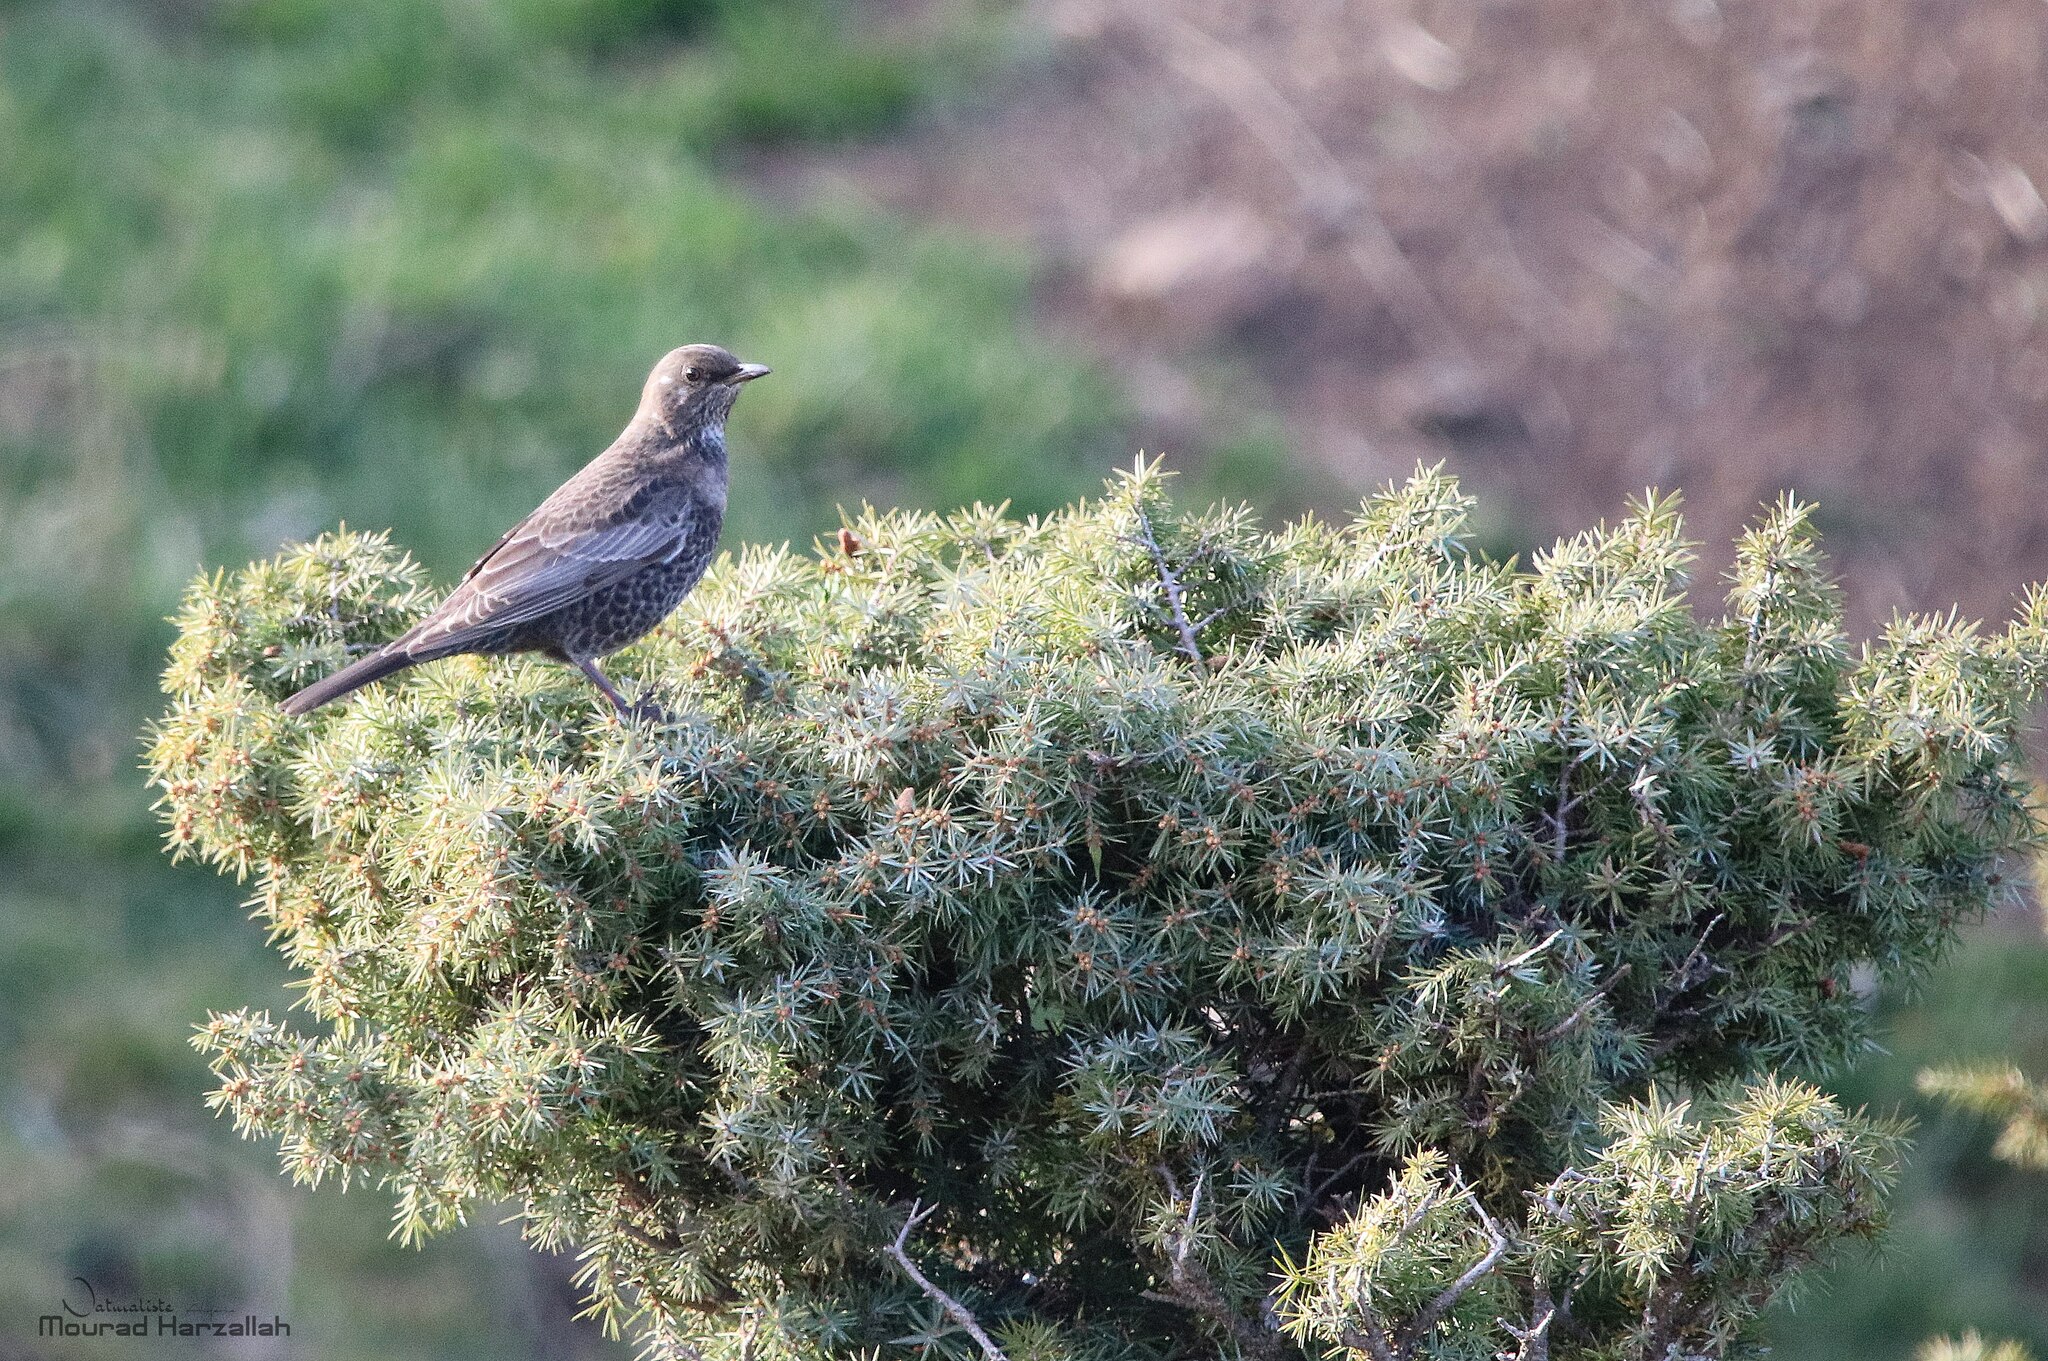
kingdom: Animalia
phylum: Chordata
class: Aves
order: Passeriformes
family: Turdidae
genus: Turdus
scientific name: Turdus torquatus
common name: Ring ouzel
